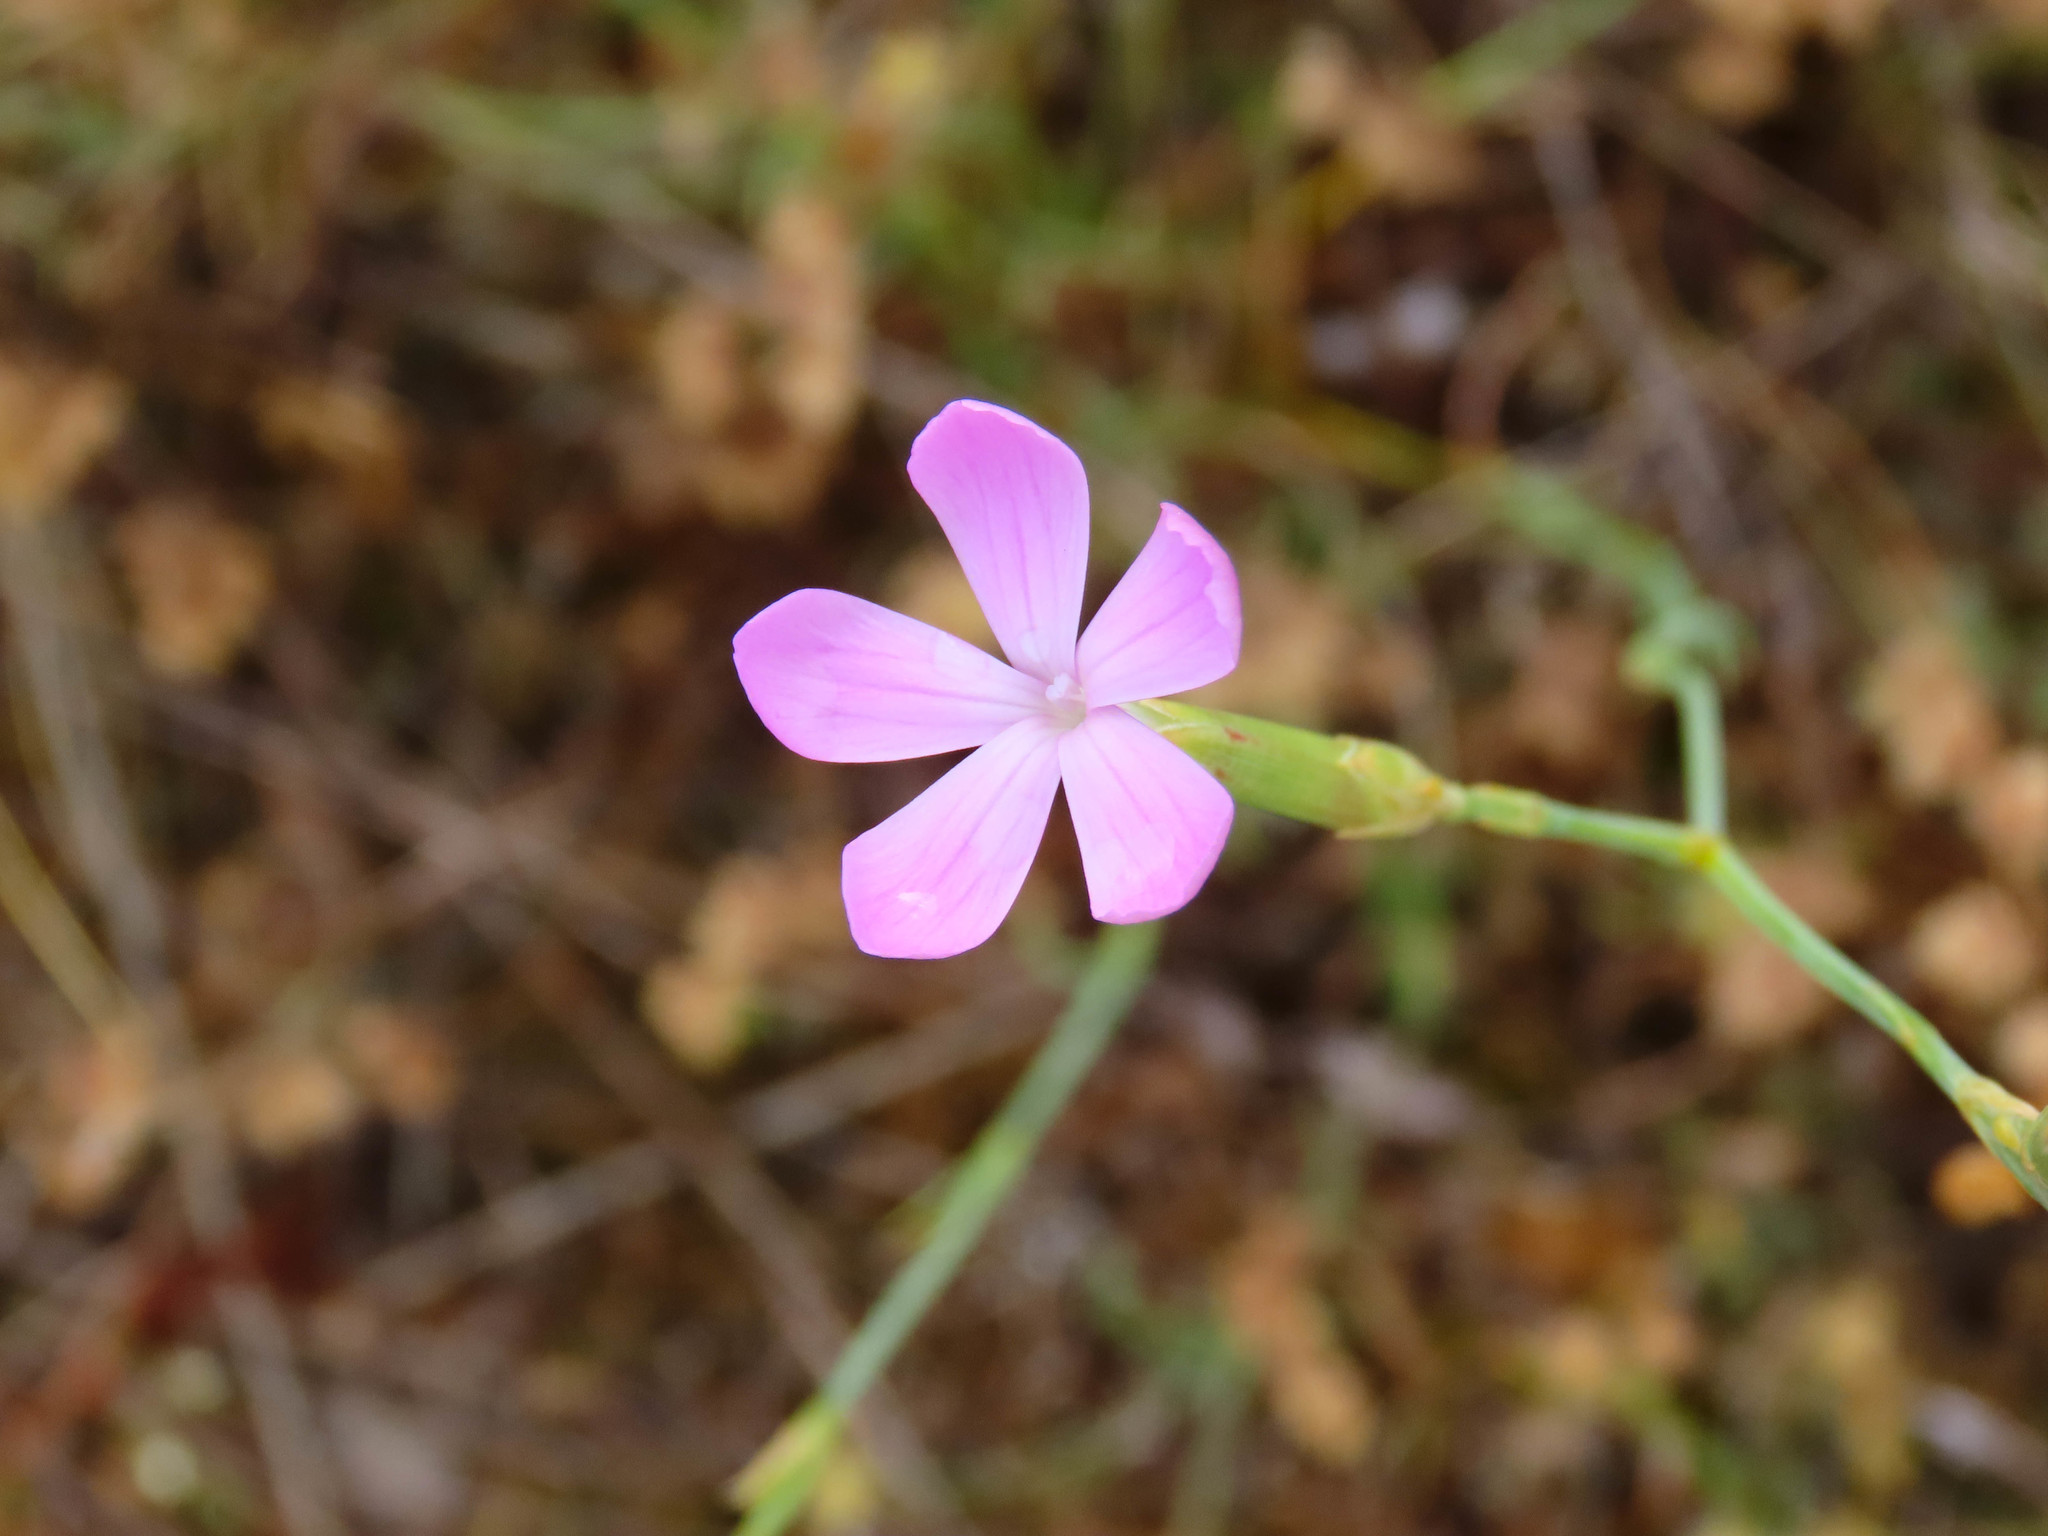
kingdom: Plantae
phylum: Tracheophyta
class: Magnoliopsida
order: Caryophyllales
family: Caryophyllaceae
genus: Dianthus
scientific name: Dianthus ciliatus
